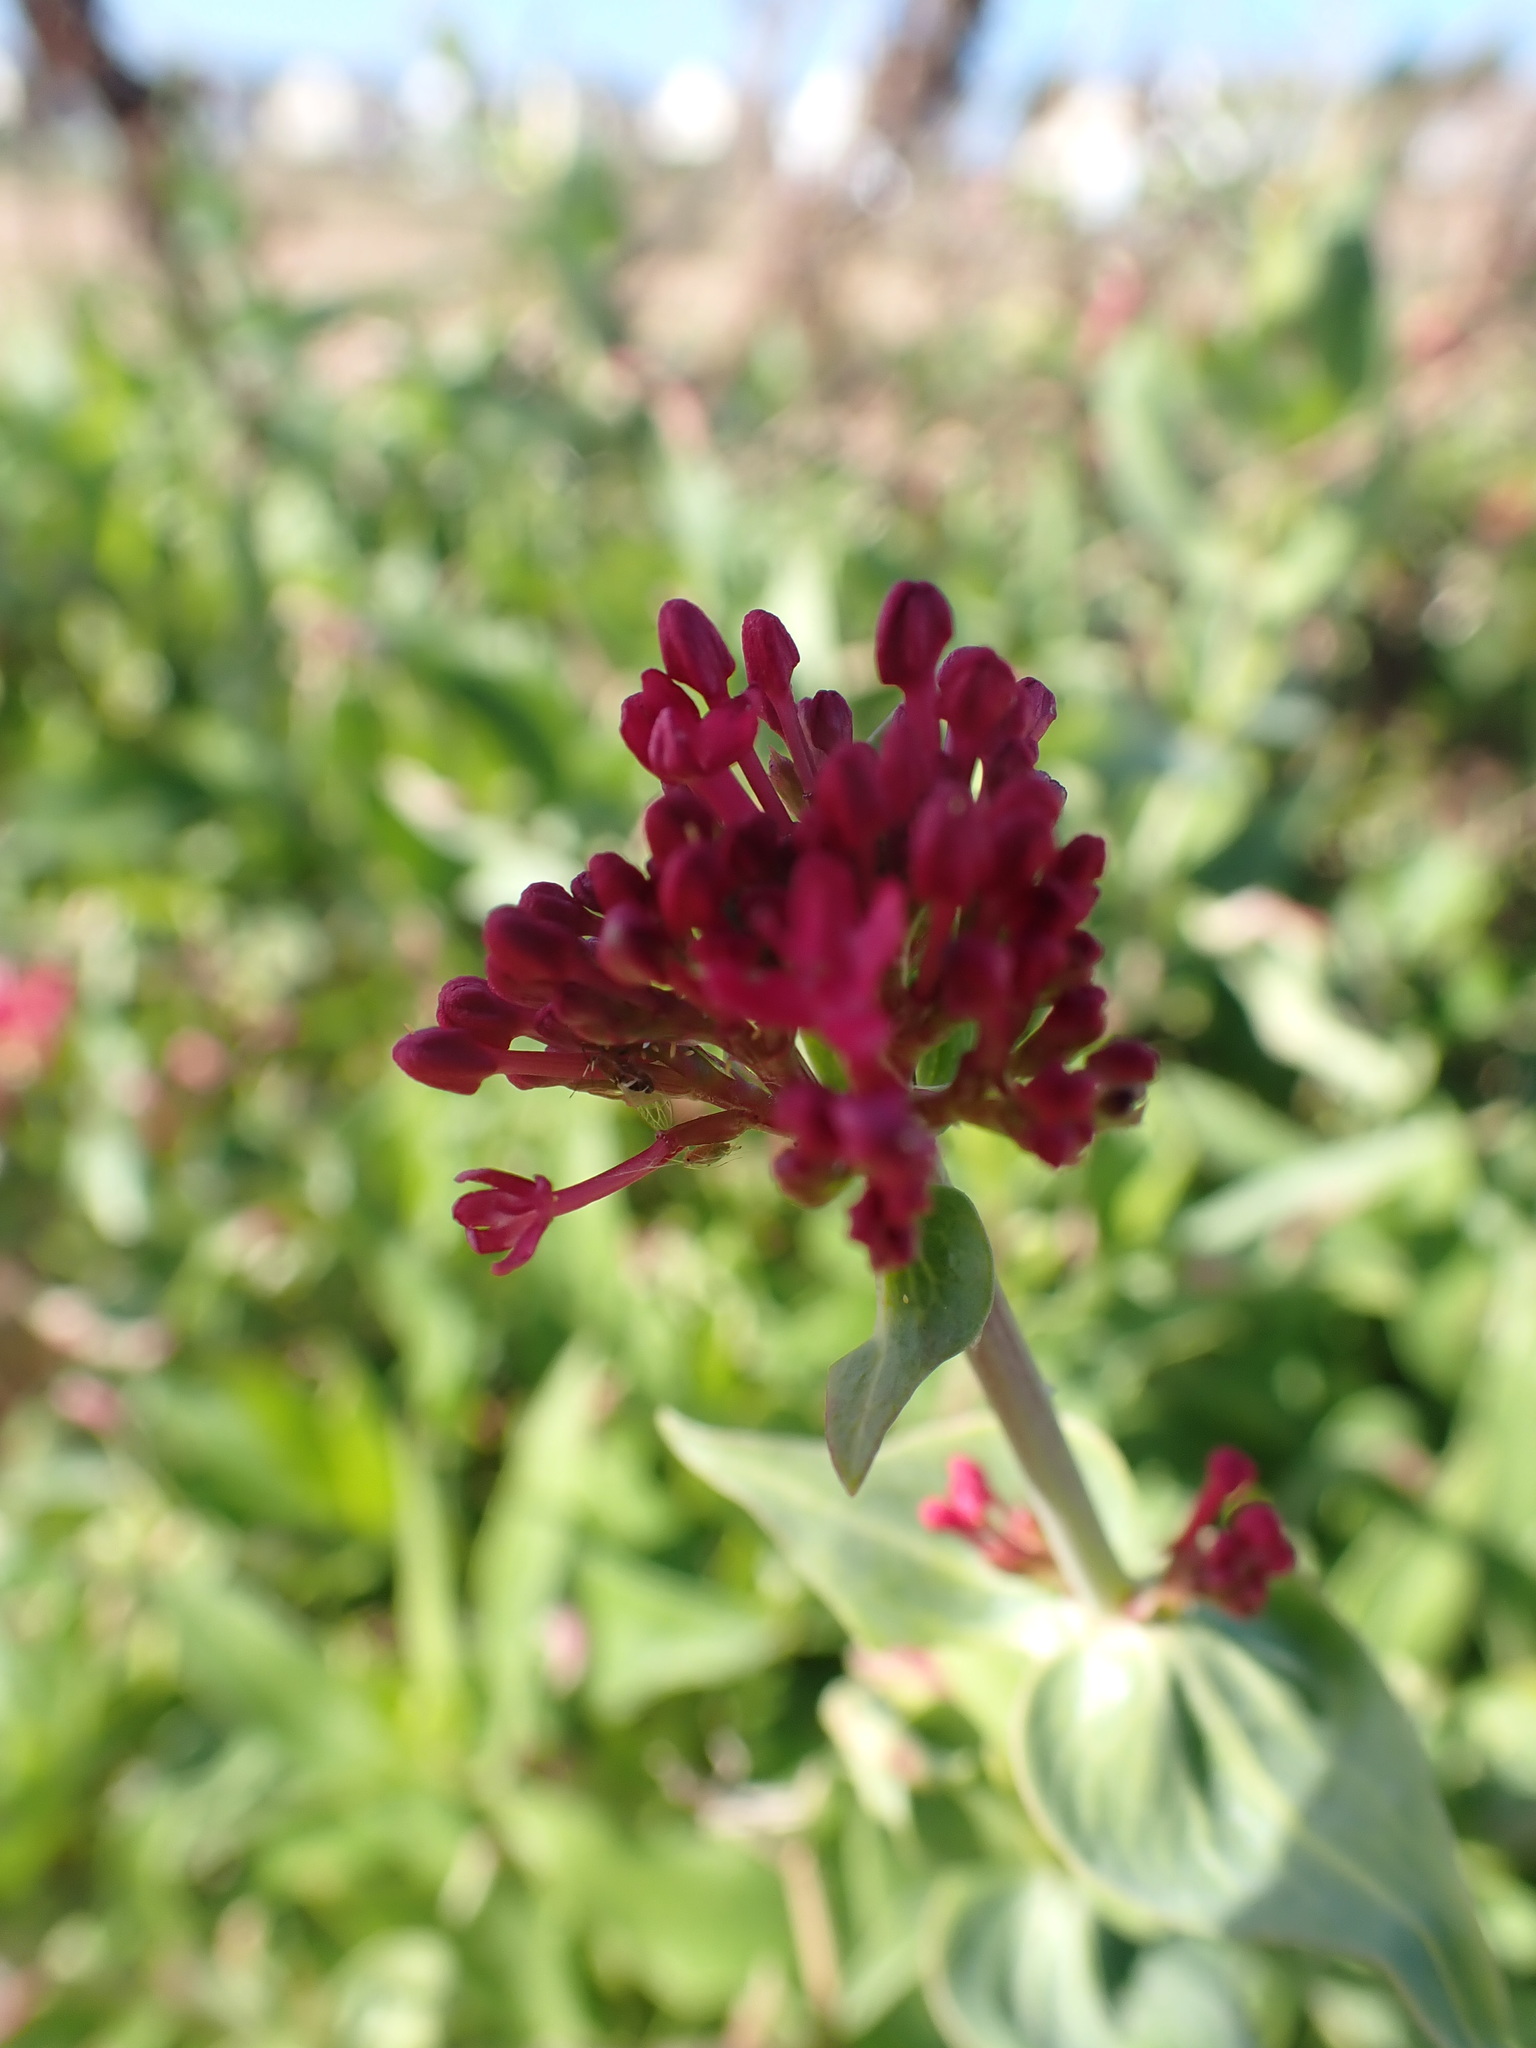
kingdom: Plantae
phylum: Tracheophyta
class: Magnoliopsida
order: Dipsacales
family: Caprifoliaceae
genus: Centranthus
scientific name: Centranthus ruber
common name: Red valerian
